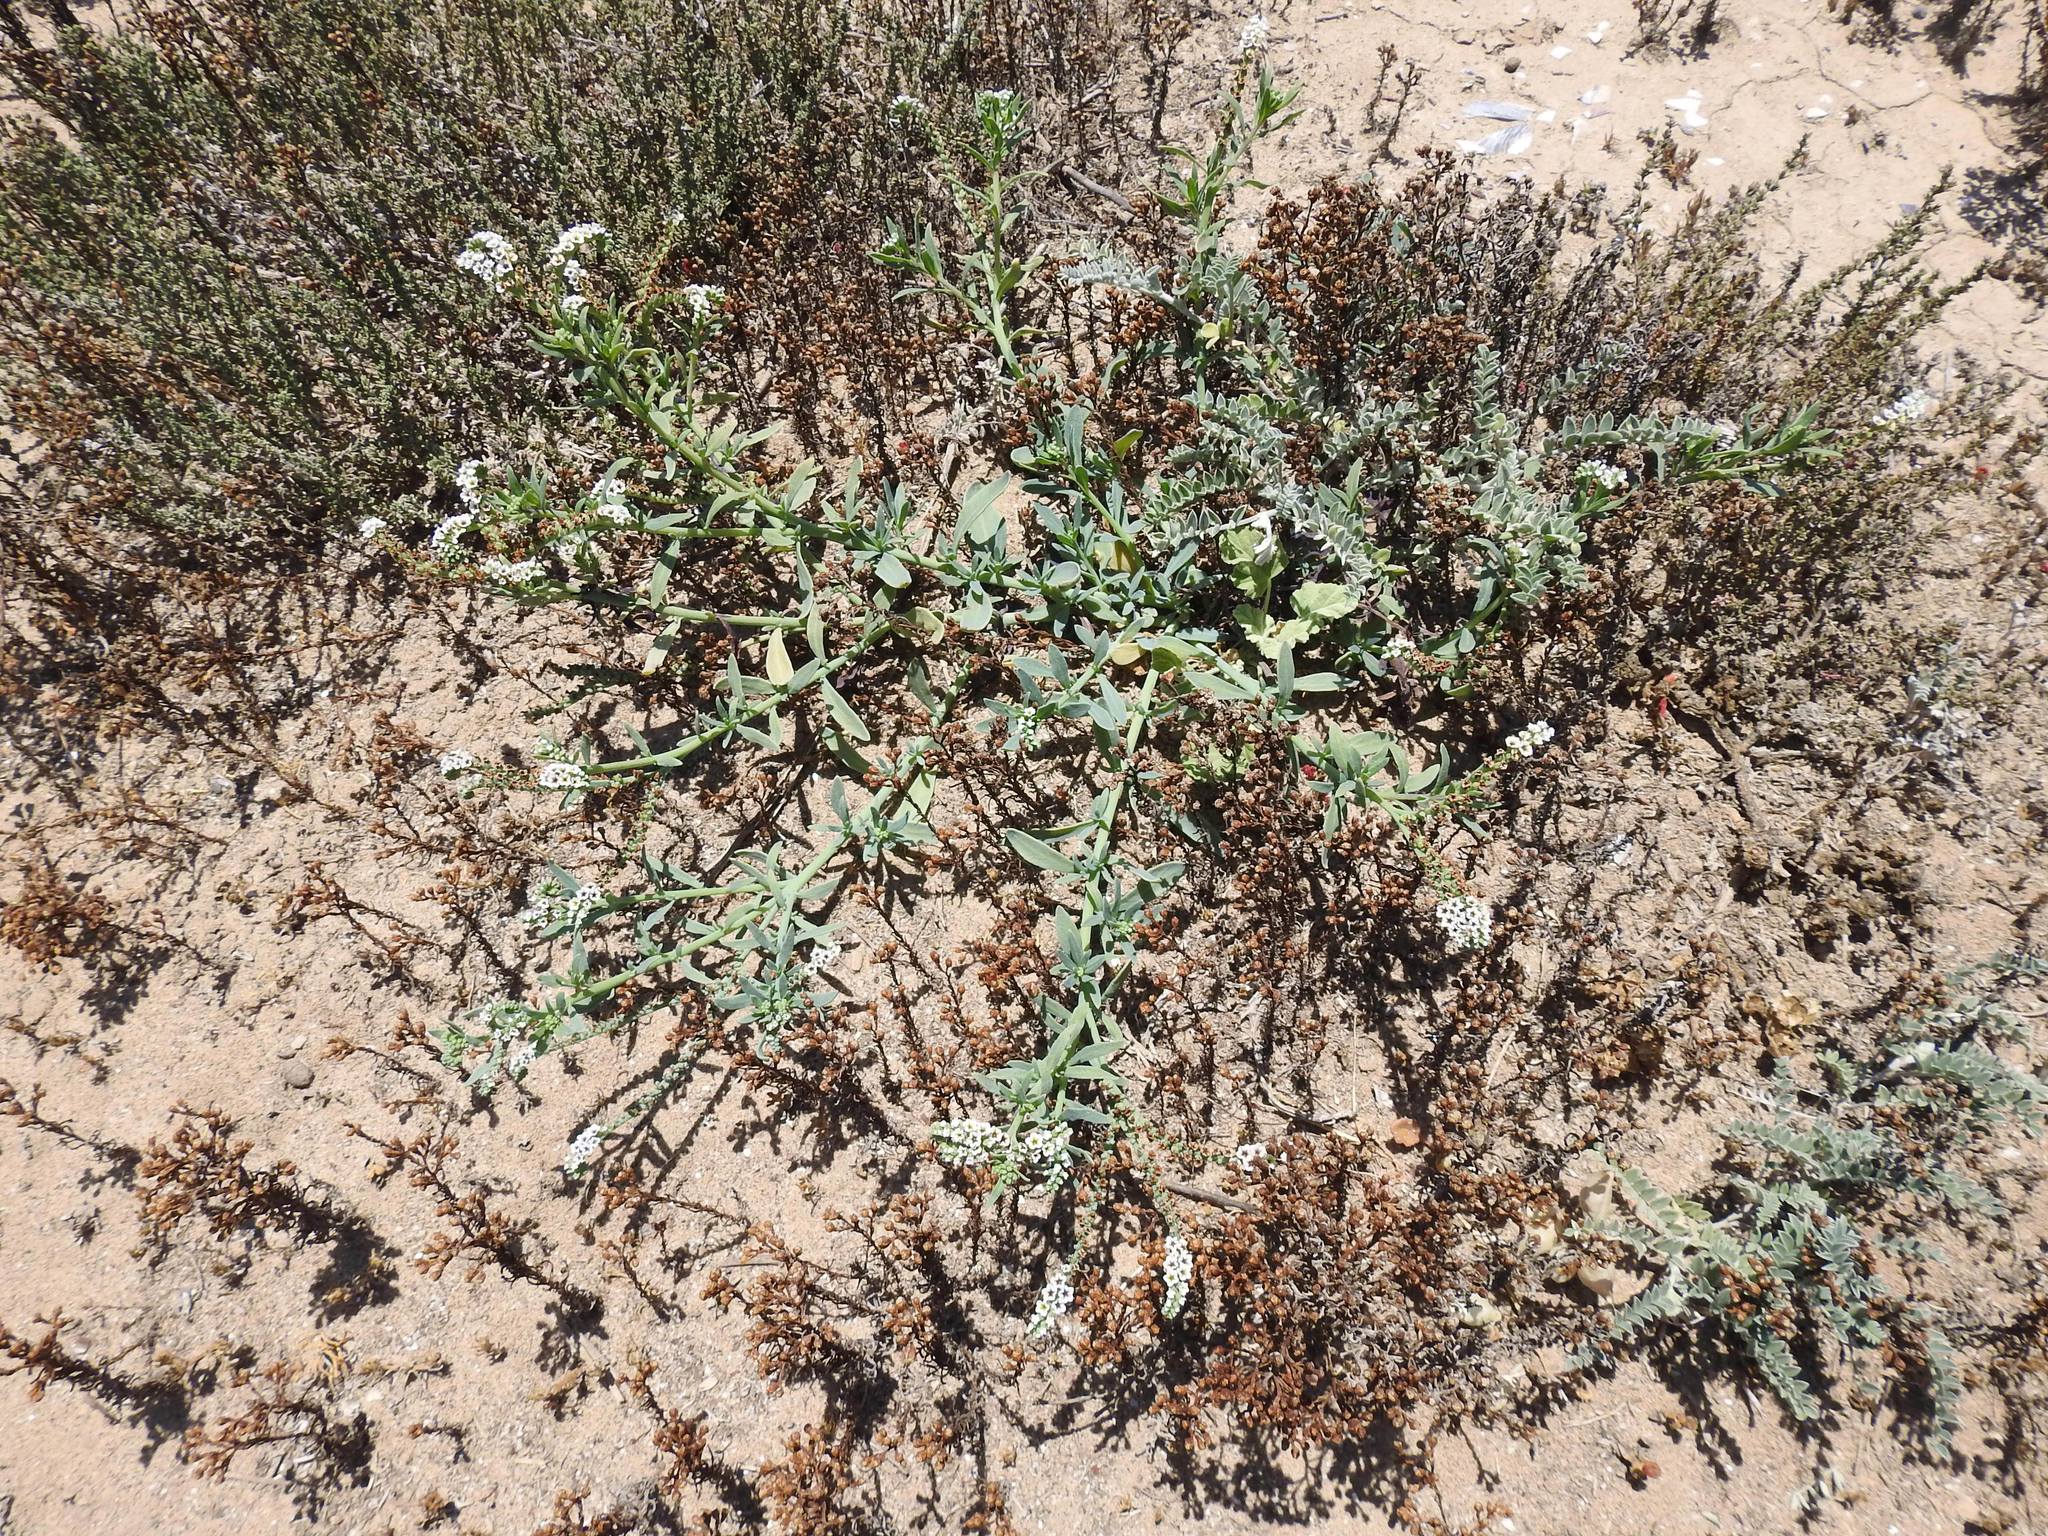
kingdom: Plantae
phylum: Tracheophyta
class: Magnoliopsida
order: Boraginales
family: Heliotropiaceae
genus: Heliotropium
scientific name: Heliotropium curassavicum
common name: Seaside heliotrope
